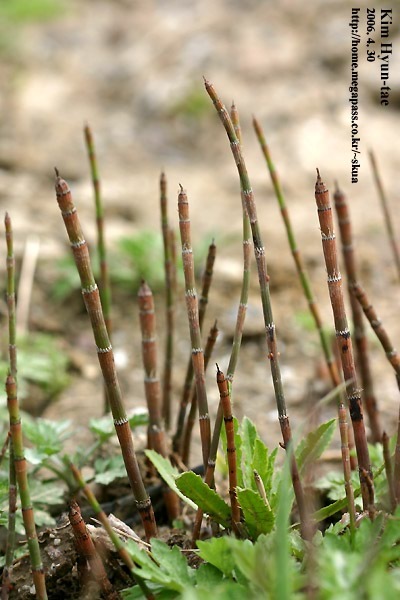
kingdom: Plantae
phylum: Tracheophyta
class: Polypodiopsida
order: Equisetales
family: Equisetaceae
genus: Equisetum
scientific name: Equisetum ramosissimum
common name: Branched horsetail
